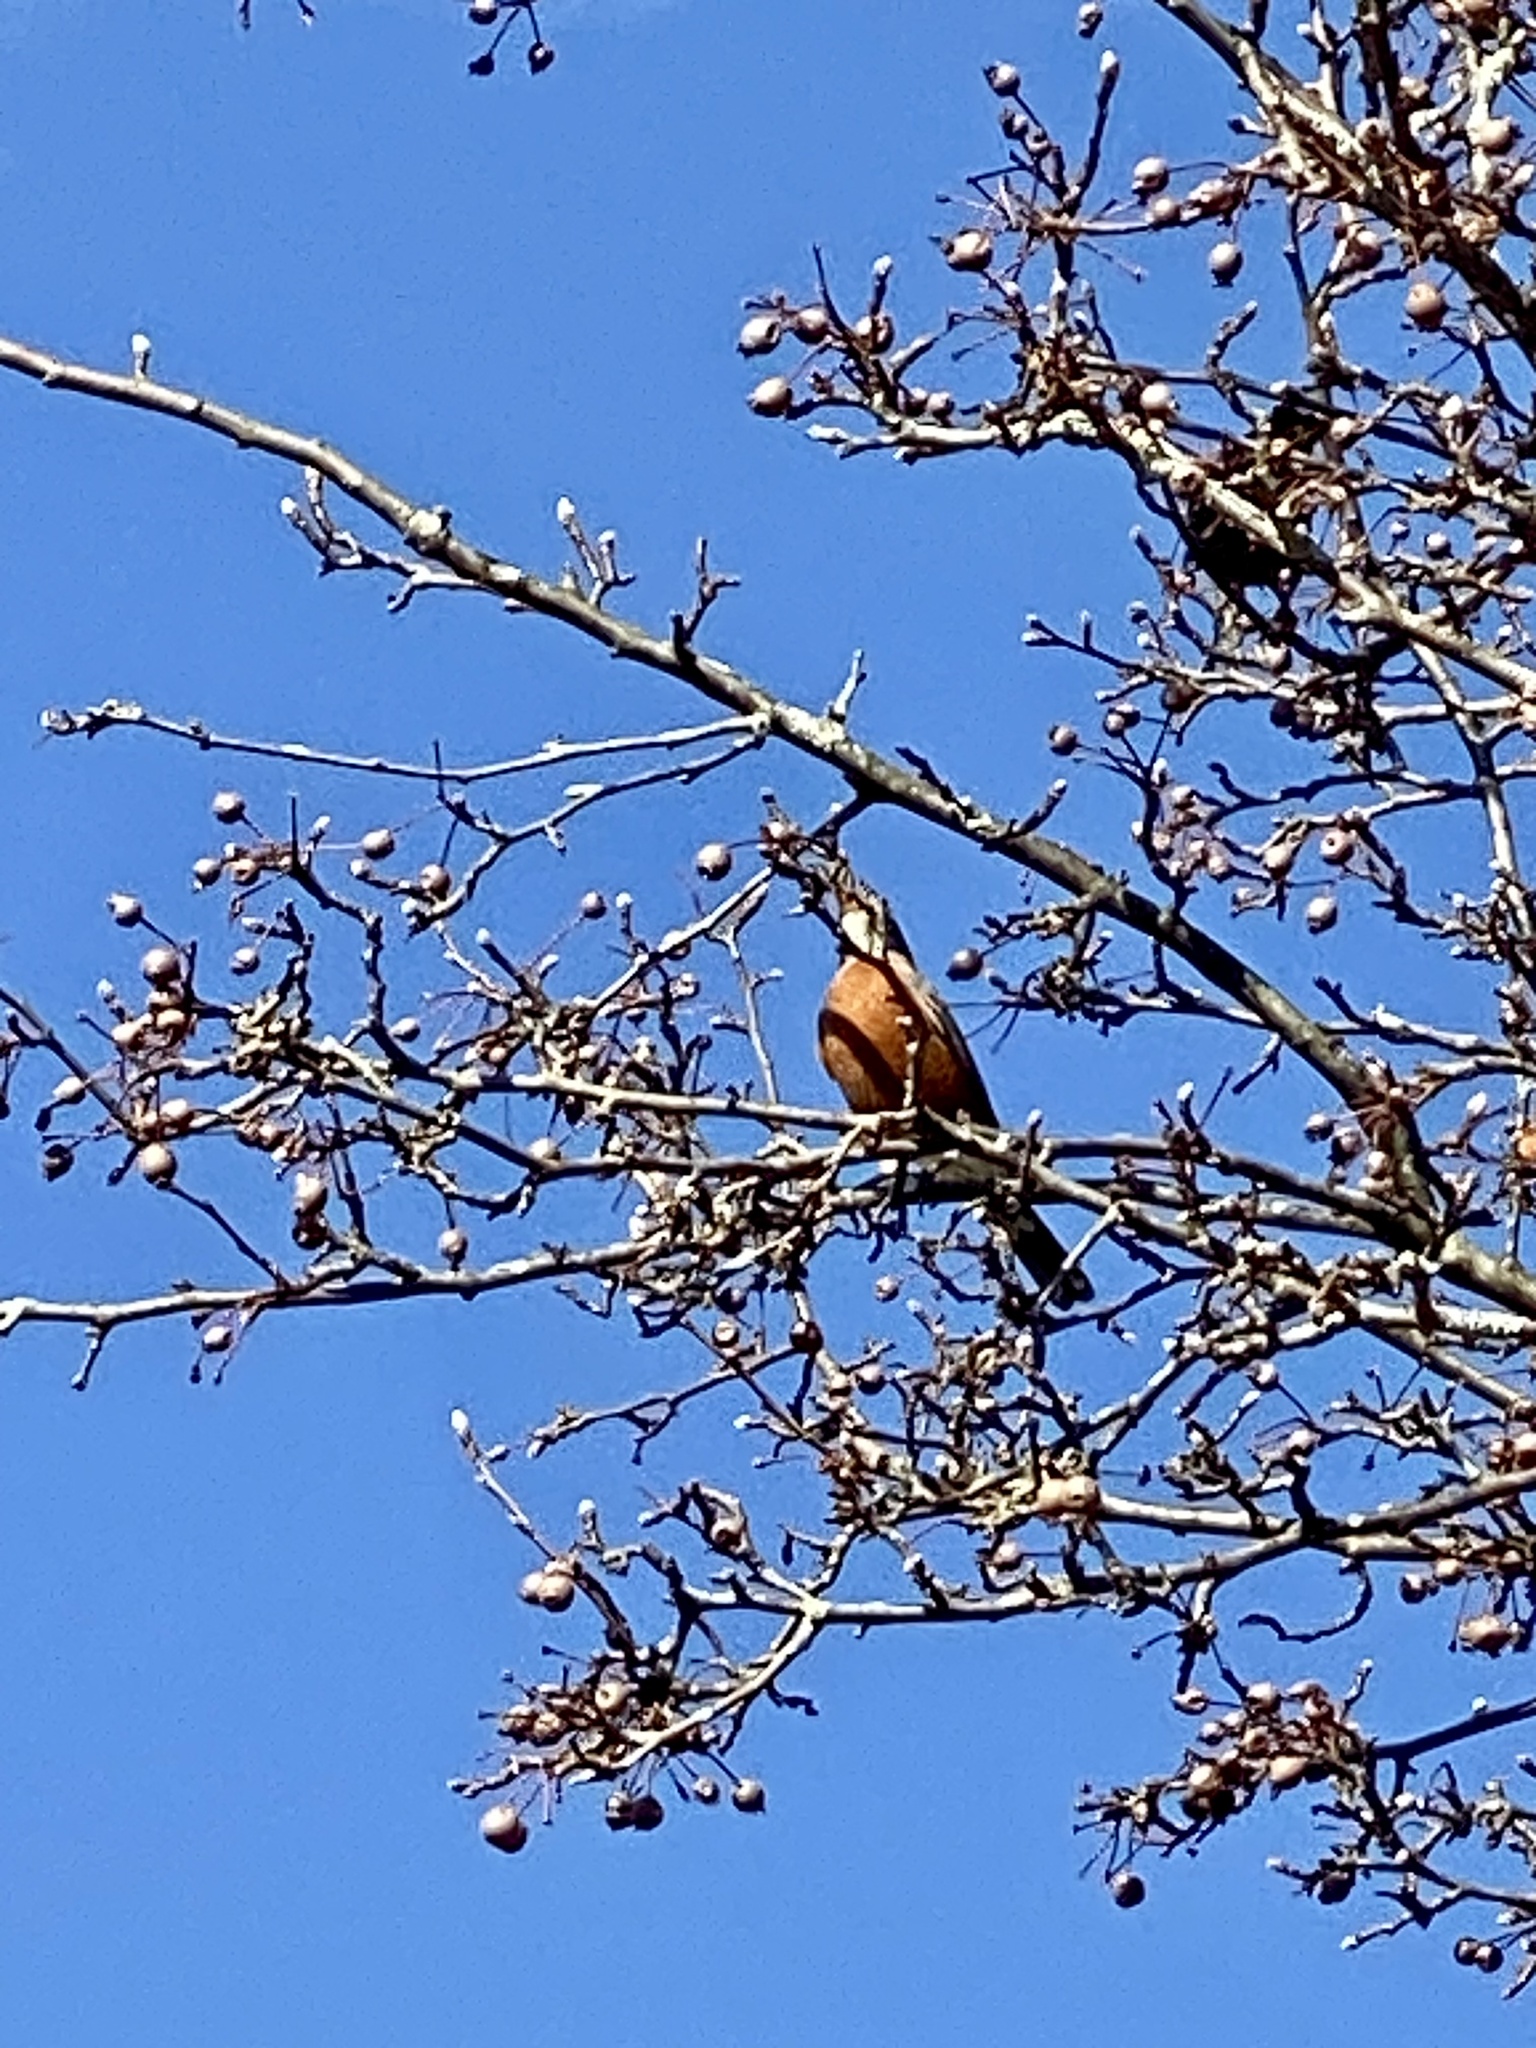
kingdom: Animalia
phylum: Chordata
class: Aves
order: Passeriformes
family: Turdidae
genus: Turdus
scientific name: Turdus migratorius
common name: American robin
